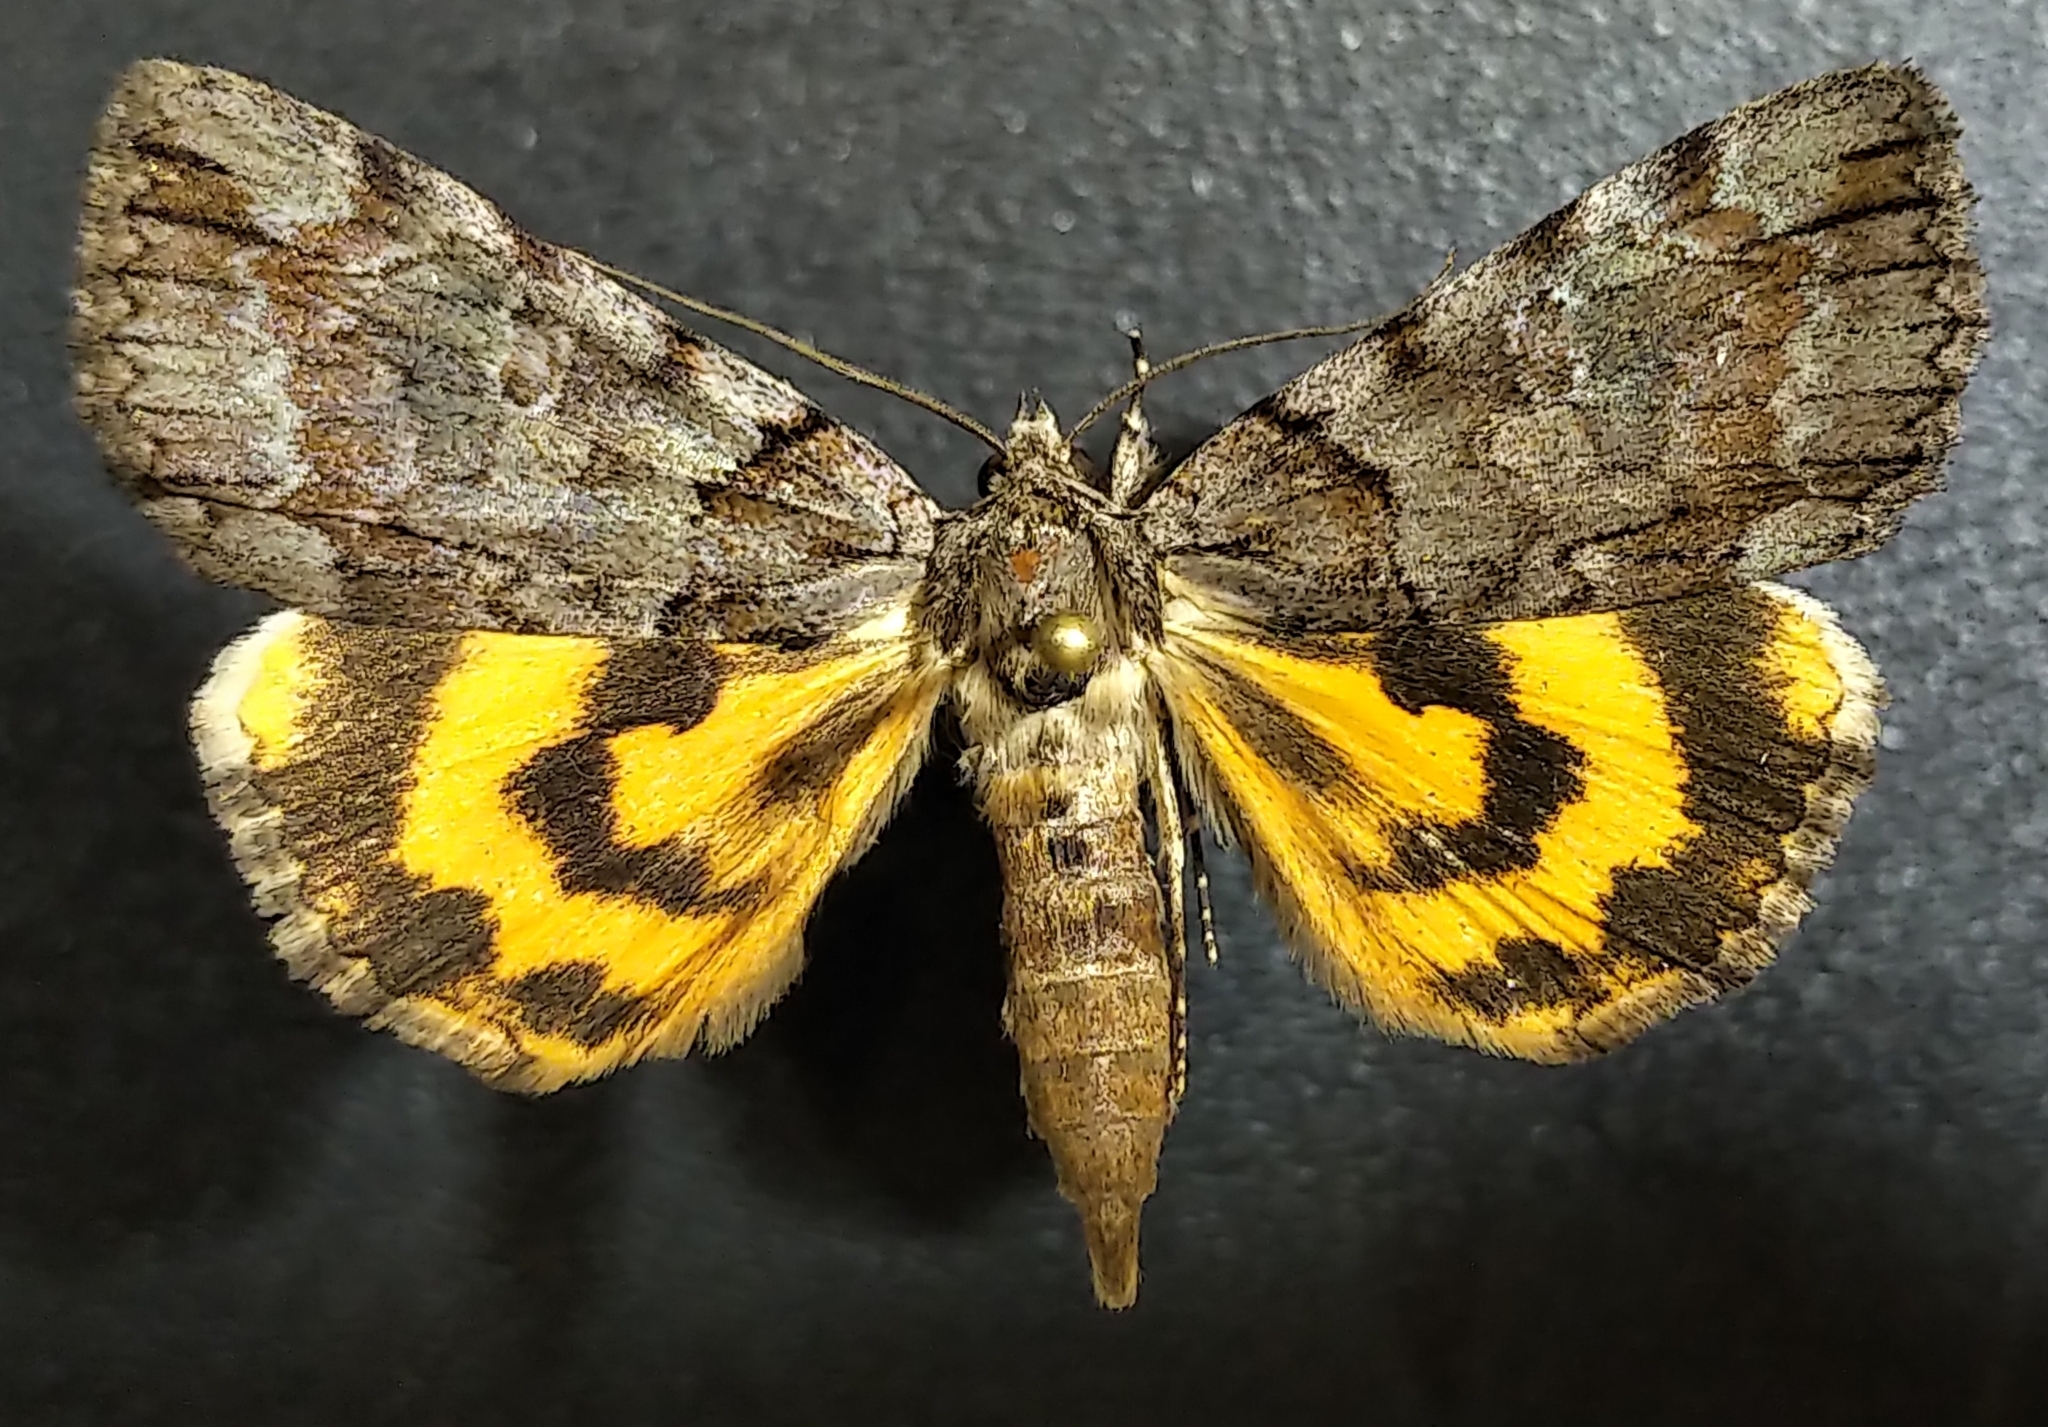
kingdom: Animalia
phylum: Arthropoda
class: Insecta
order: Lepidoptera
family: Erebidae
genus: Catocala
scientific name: Catocala praeclara
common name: Praeclara underwing
